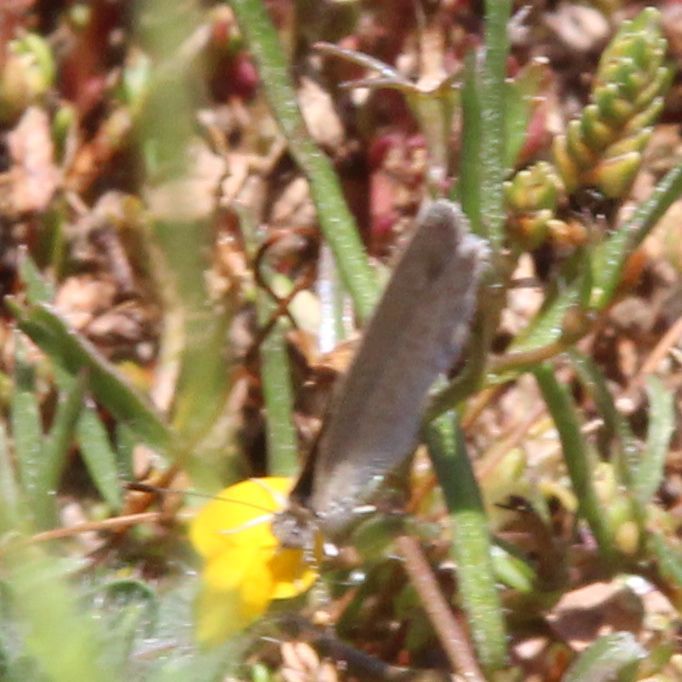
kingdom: Animalia
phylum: Arthropoda
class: Insecta
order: Lepidoptera
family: Lycaenidae
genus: Zizina
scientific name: Zizina labradus
